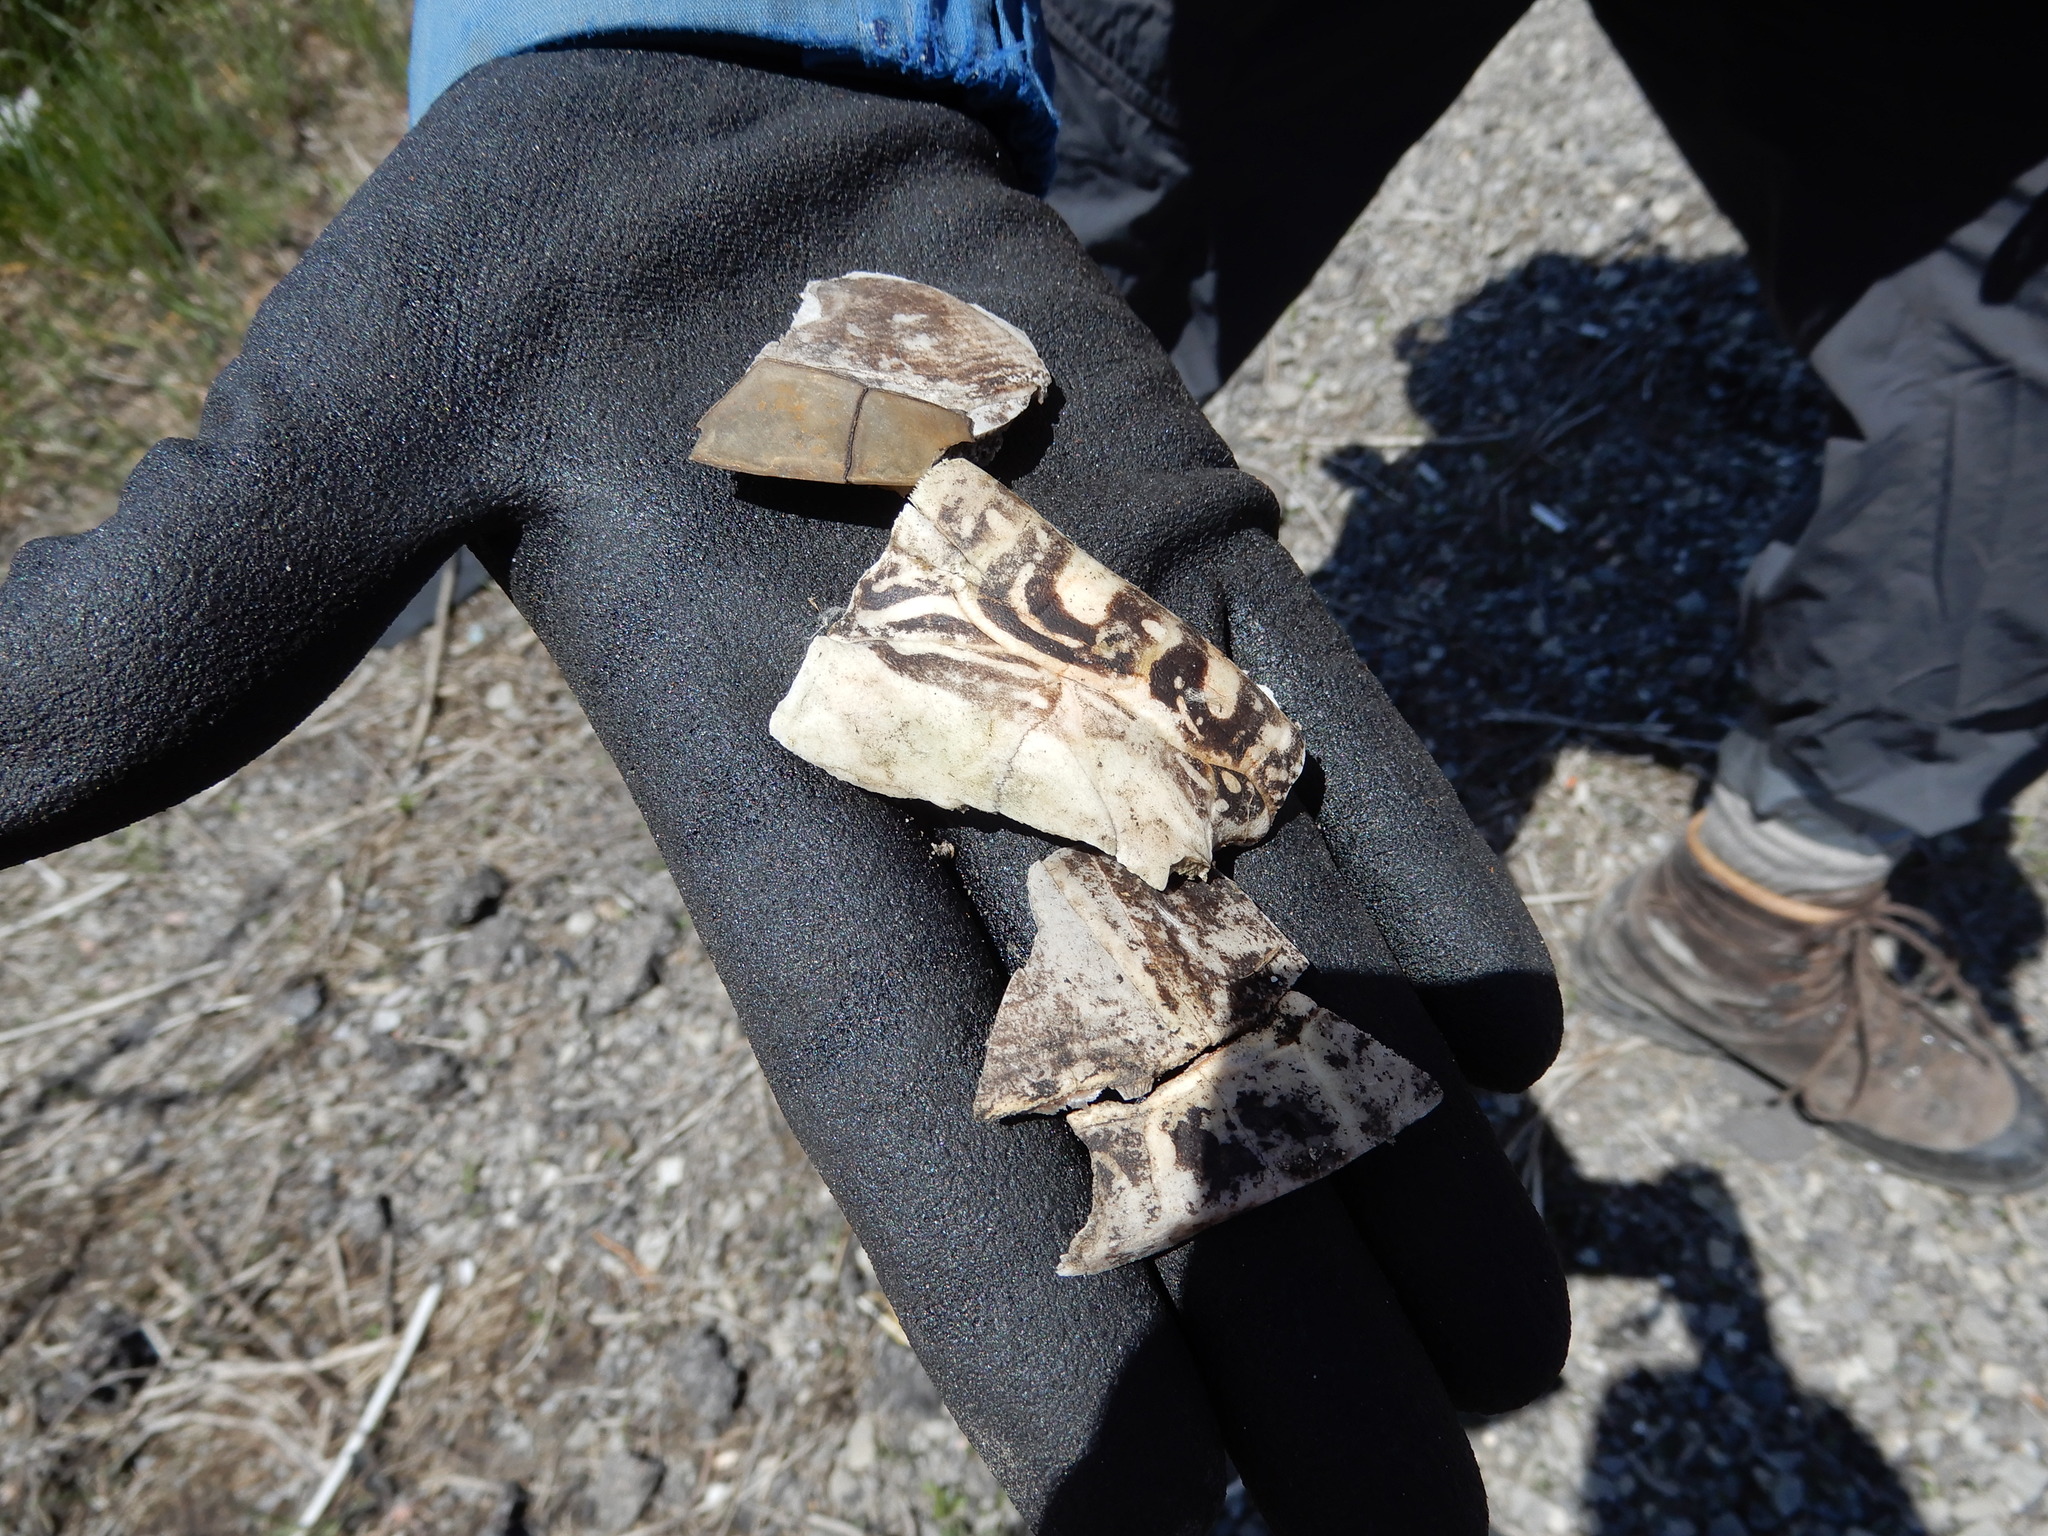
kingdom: Animalia
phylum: Chordata
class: Testudines
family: Emydidae
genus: Chrysemys
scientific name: Chrysemys picta
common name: Painted turtle
